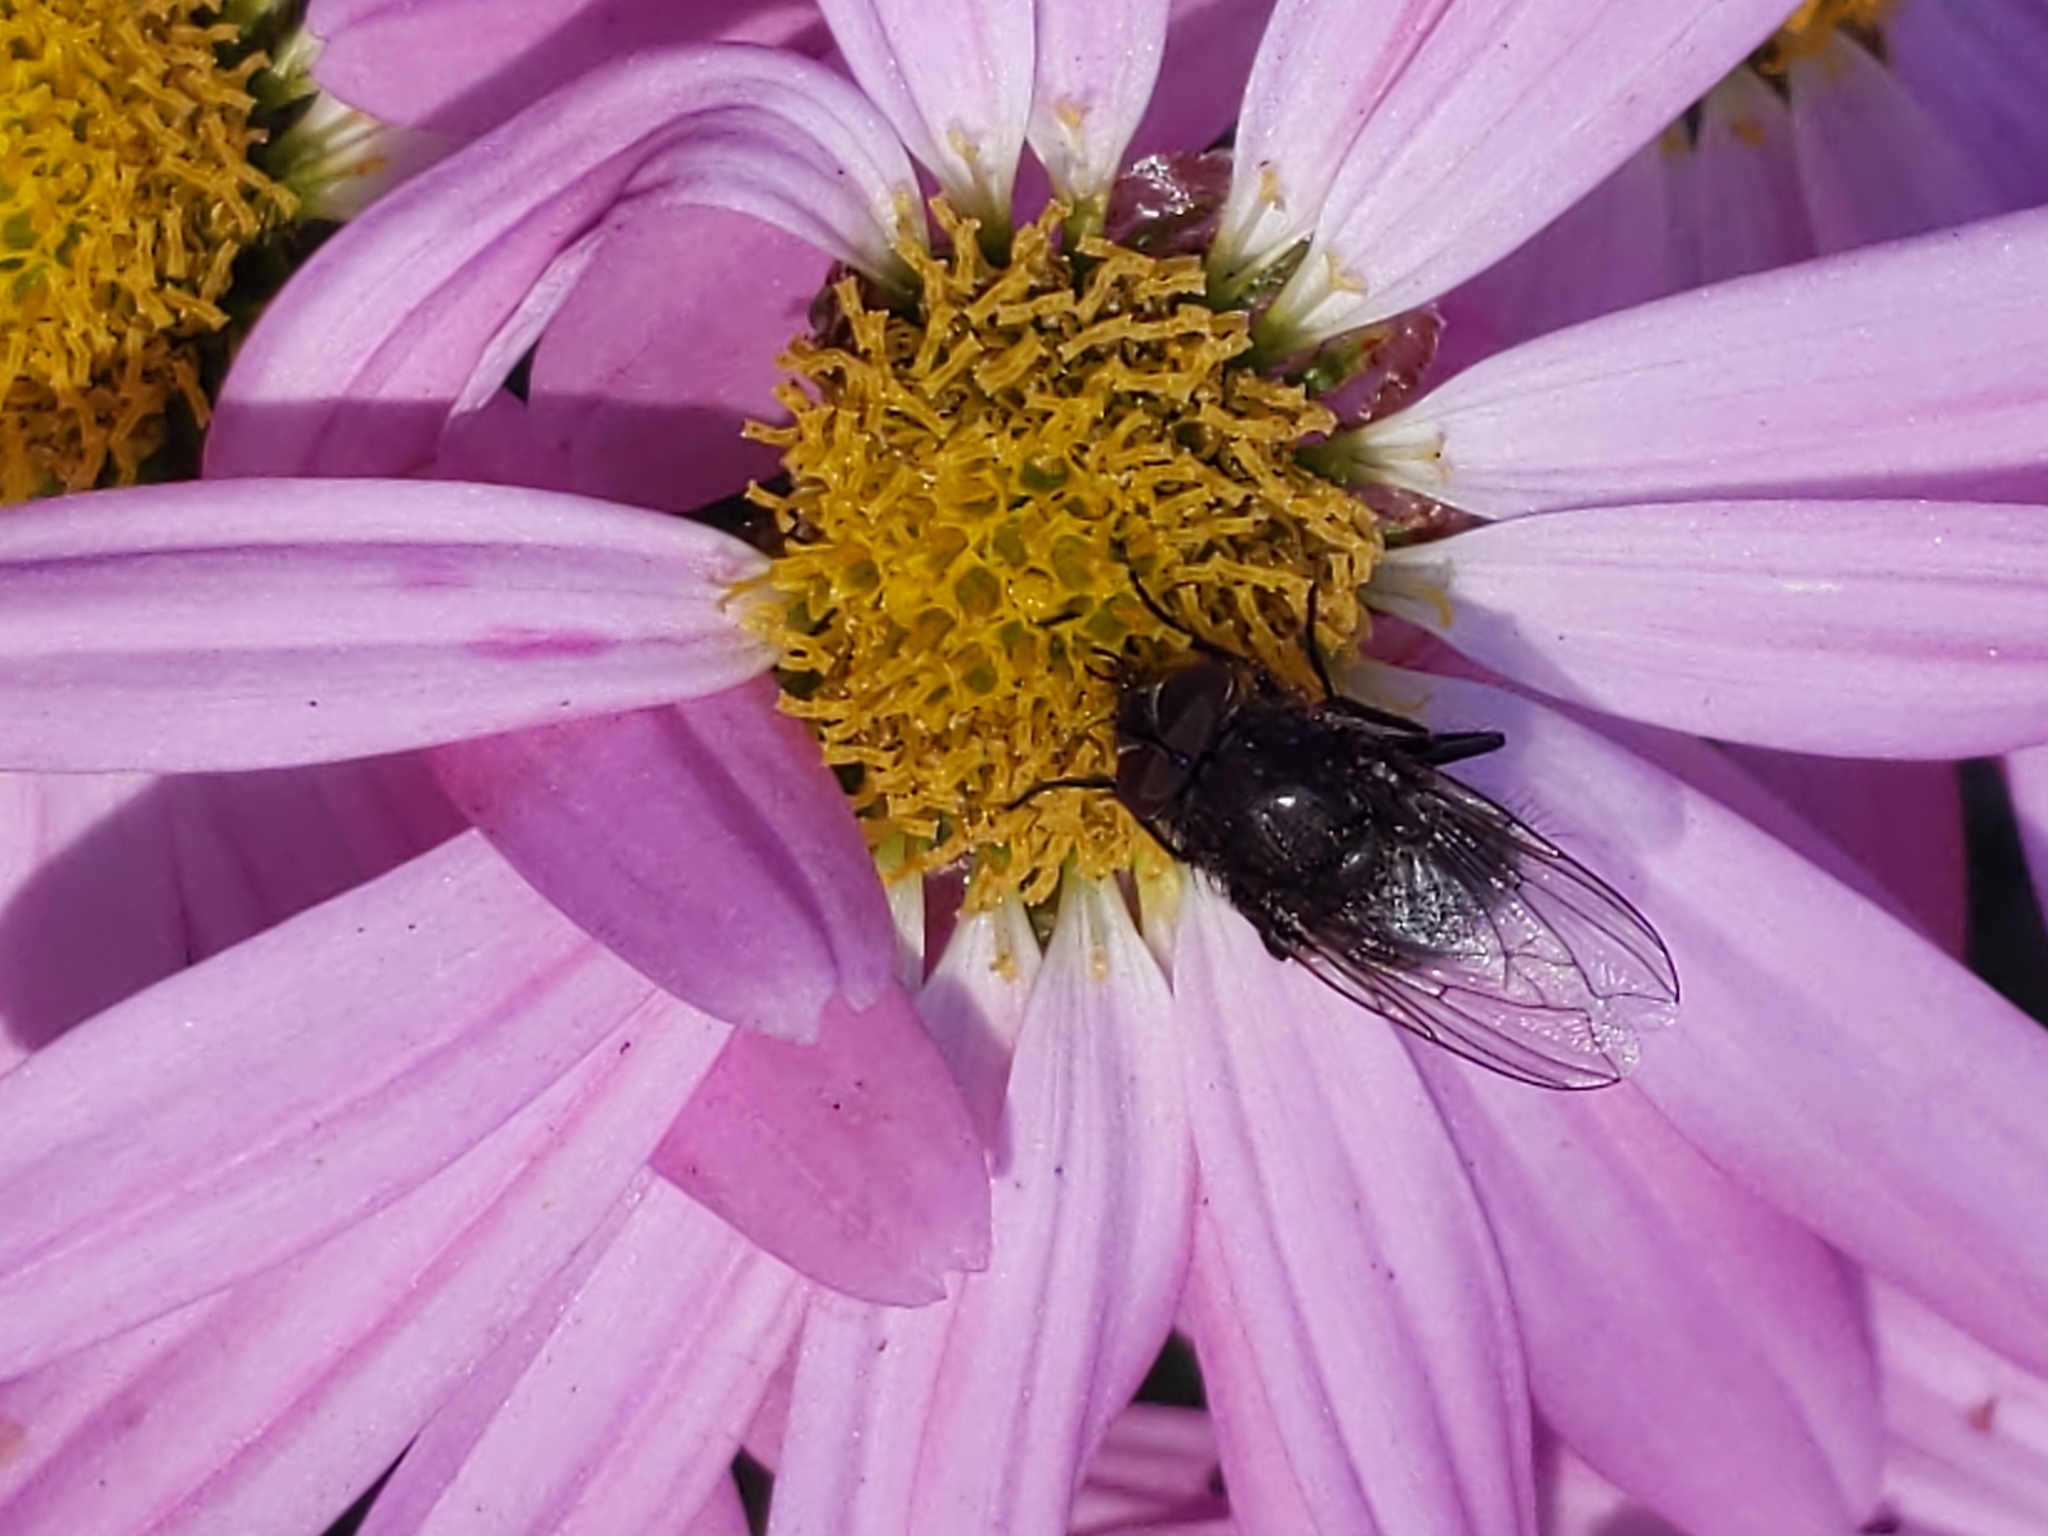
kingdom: Animalia
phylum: Arthropoda
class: Insecta
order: Diptera
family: Polleniidae
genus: Pollenia
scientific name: Pollenia
